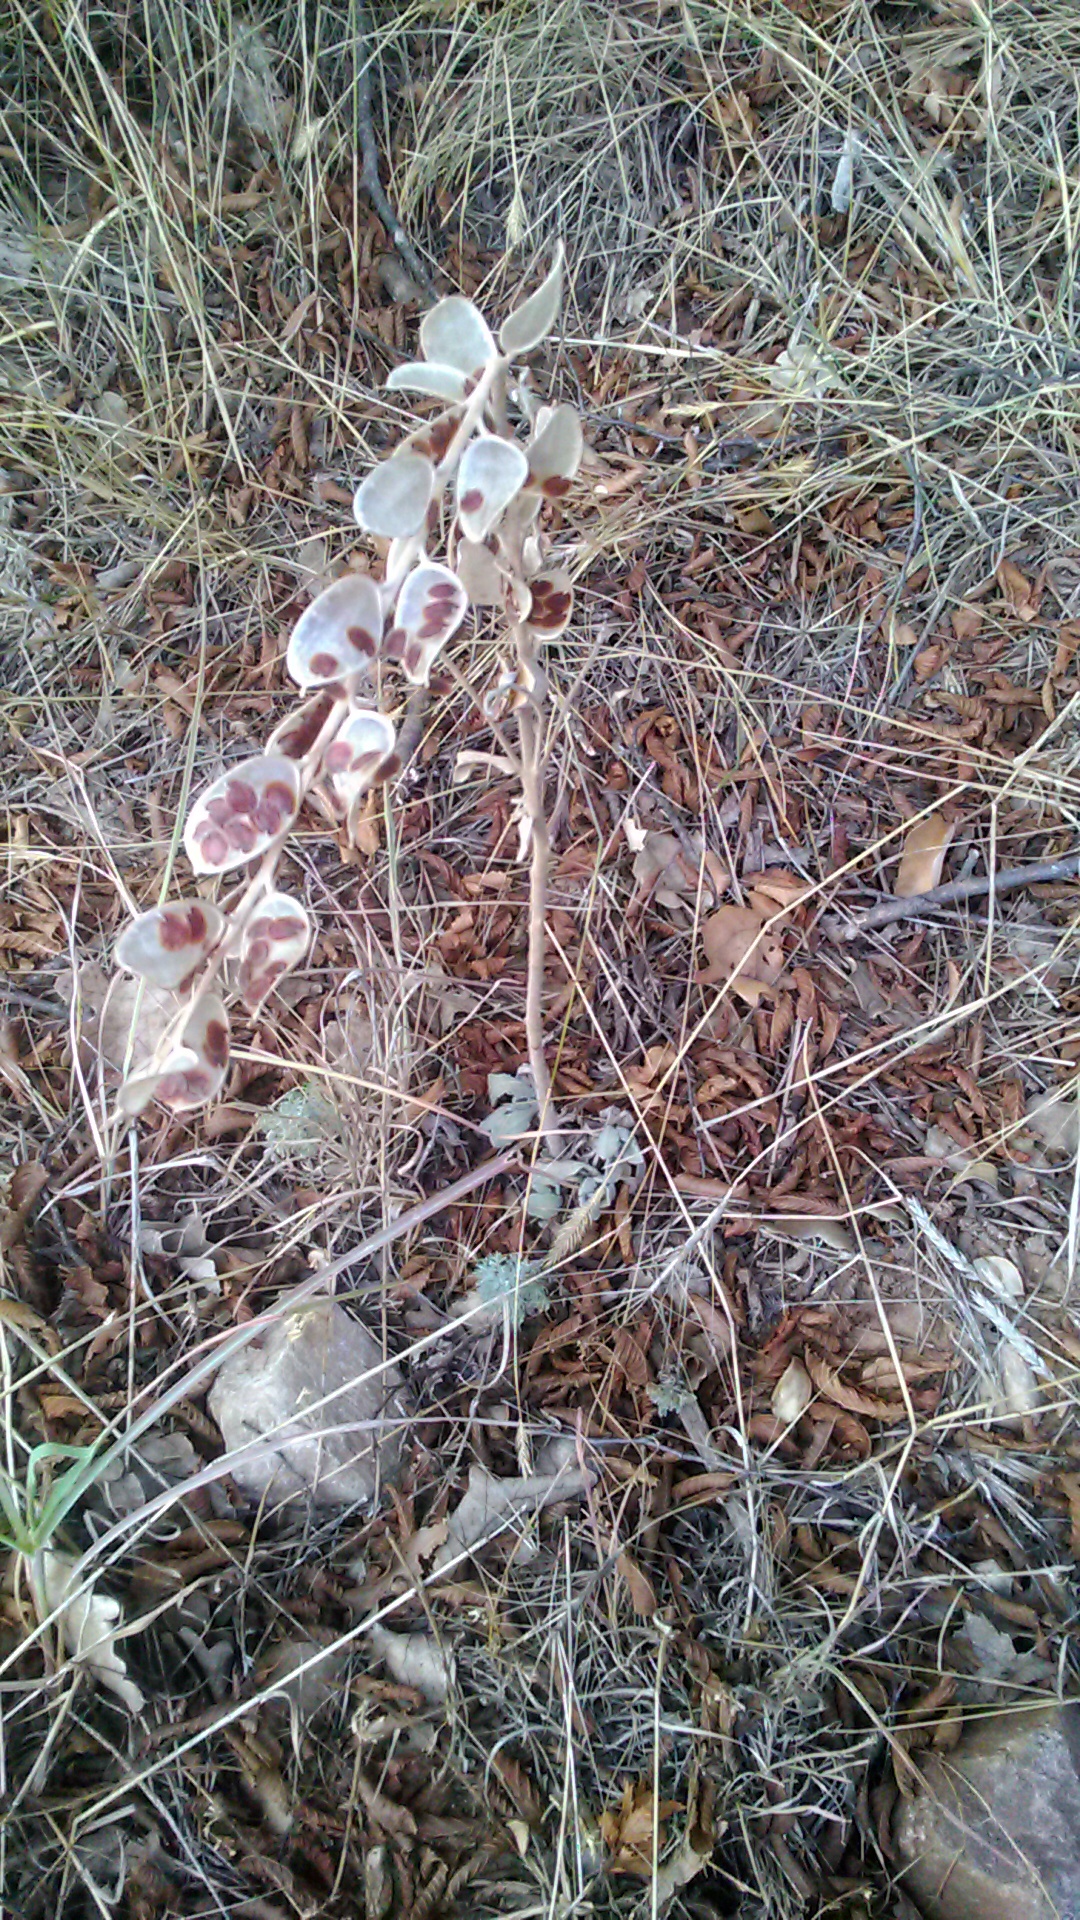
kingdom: Plantae
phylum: Tracheophyta
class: Magnoliopsida
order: Brassicales
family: Brassicaceae
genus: Fibigia
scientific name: Fibigia clypeata
